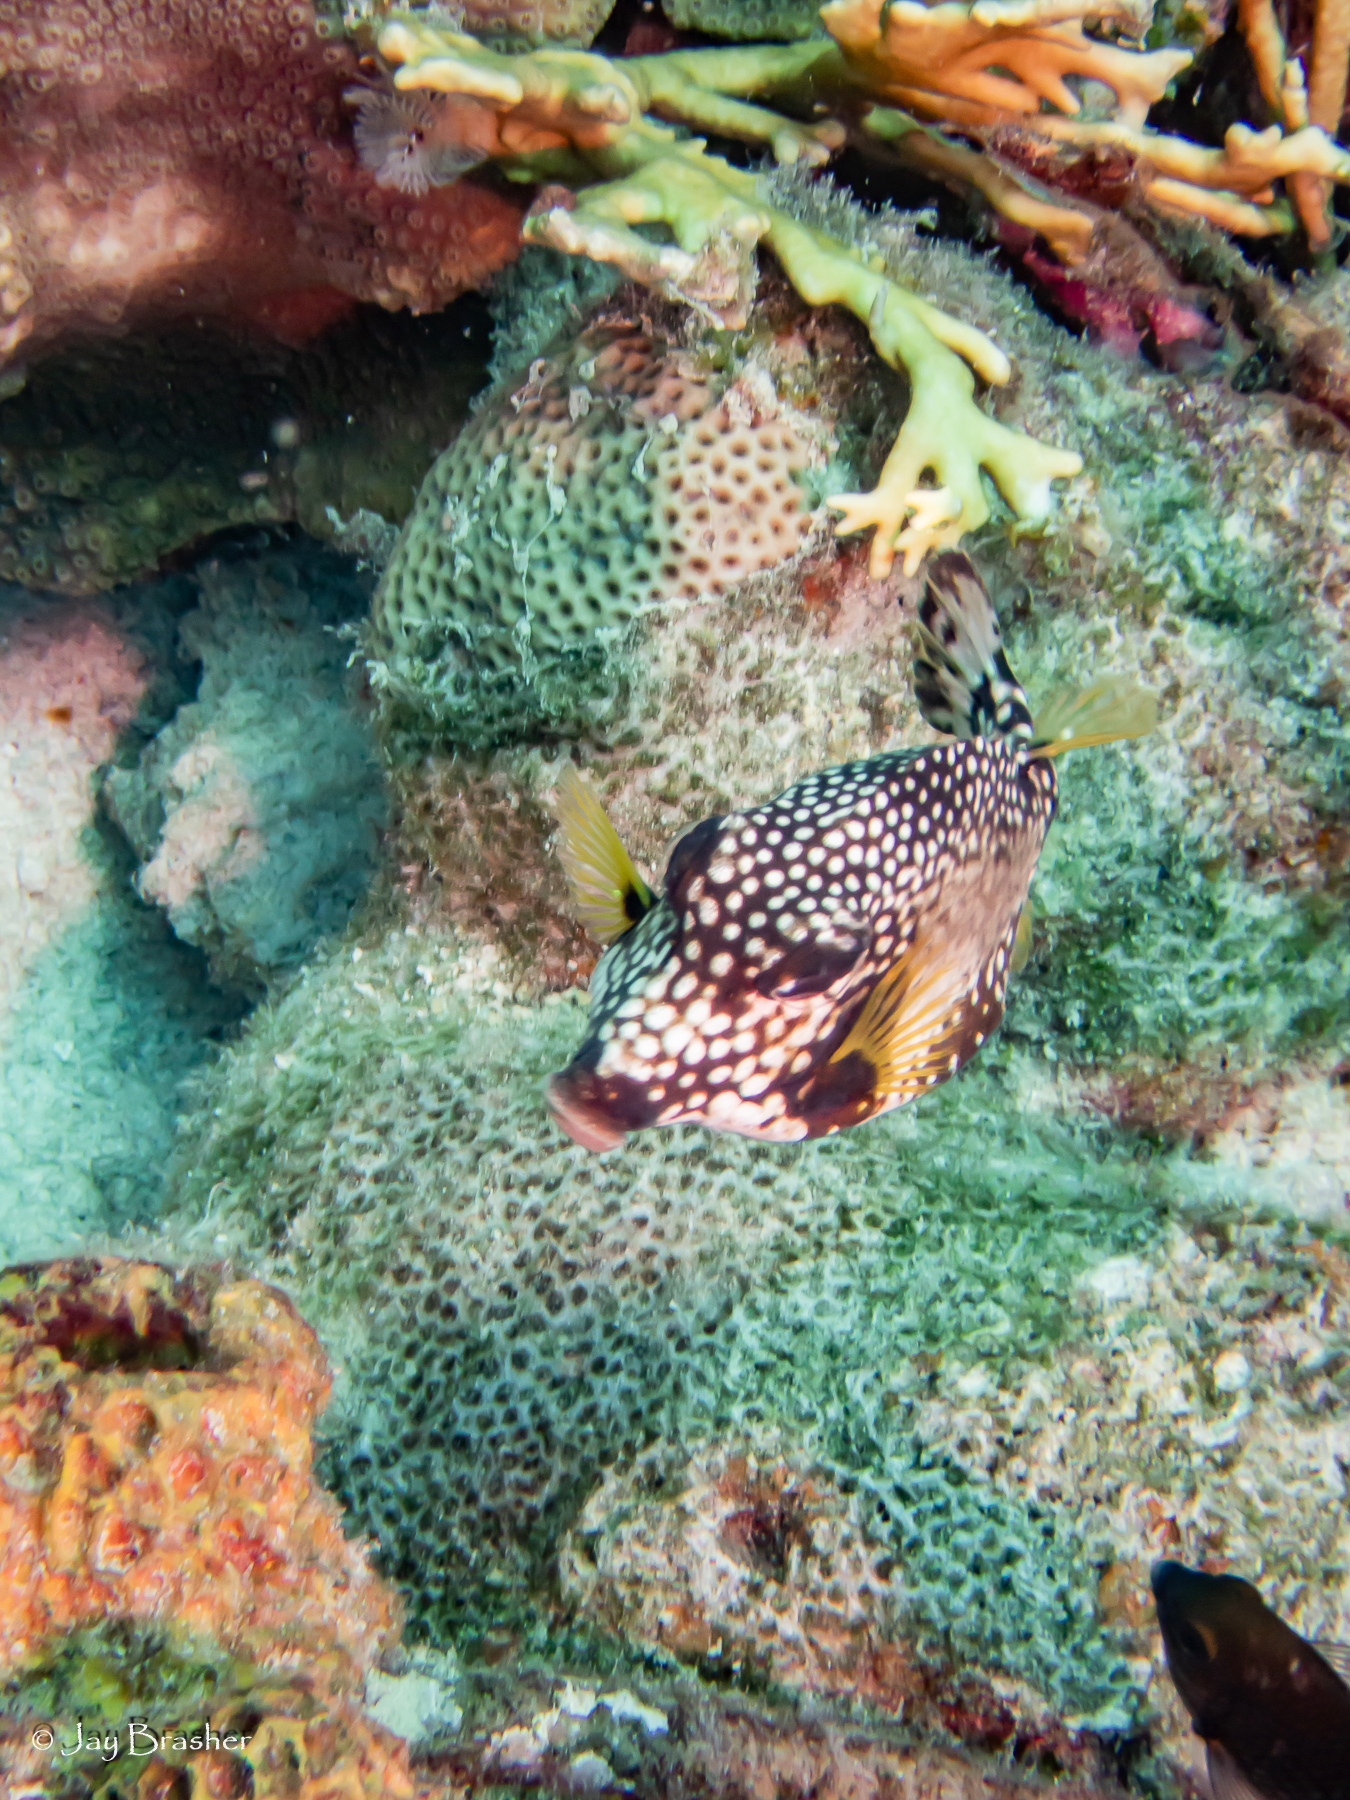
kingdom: Animalia
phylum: Chordata
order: Tetraodontiformes
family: Ostraciidae
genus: Lactophrys
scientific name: Lactophrys triqueter
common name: Smooth trunkfish
